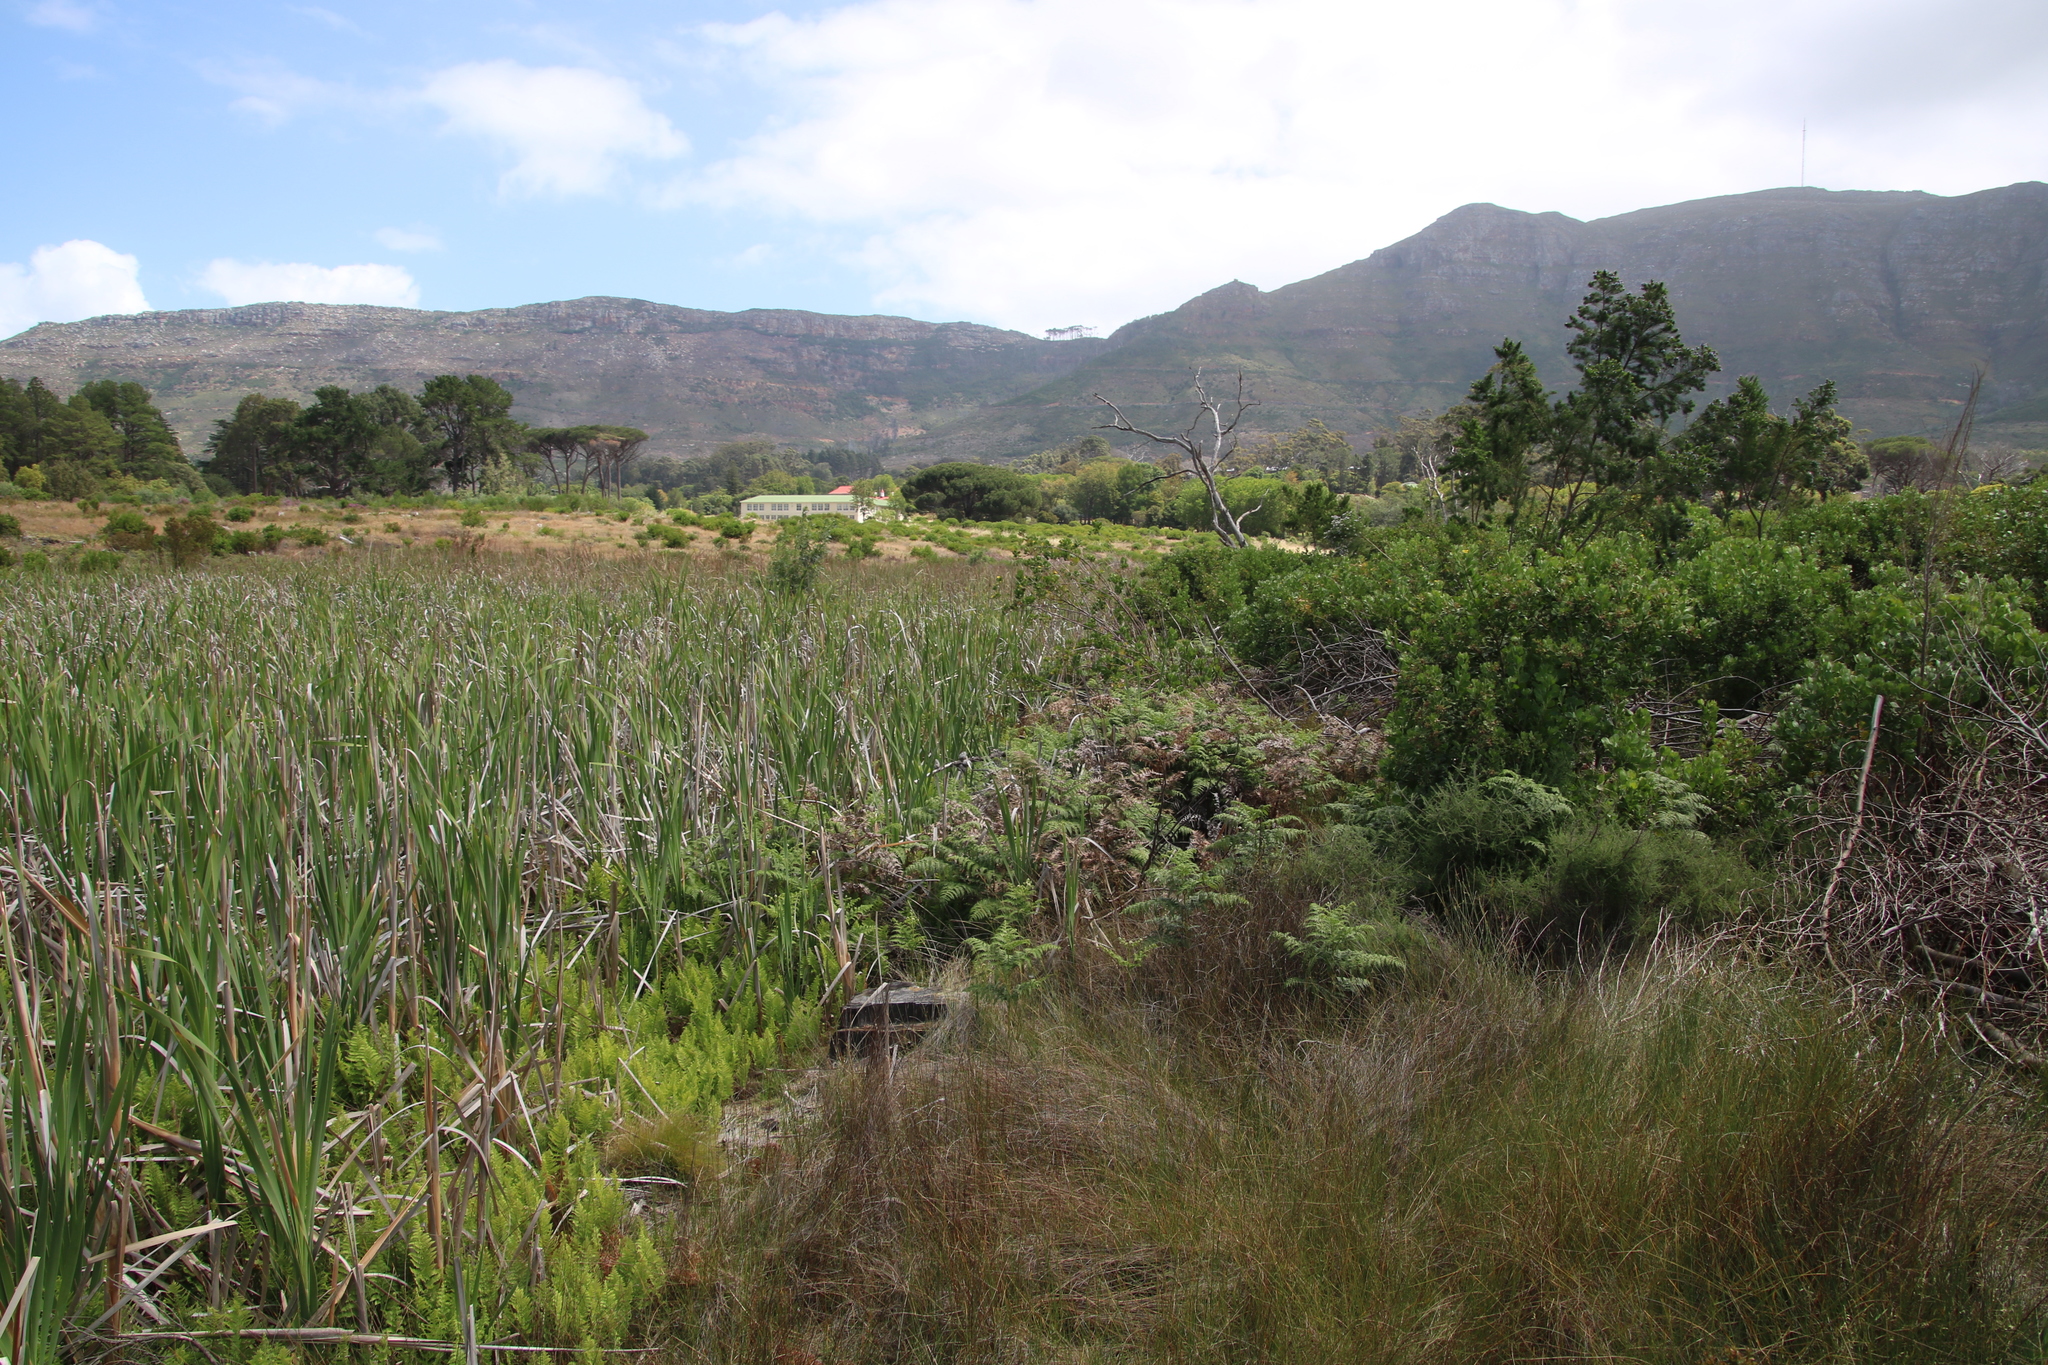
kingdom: Plantae
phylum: Tracheophyta
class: Polypodiopsida
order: Polypodiales
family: Thelypteridaceae
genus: Thelypteris
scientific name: Thelypteris confluens
